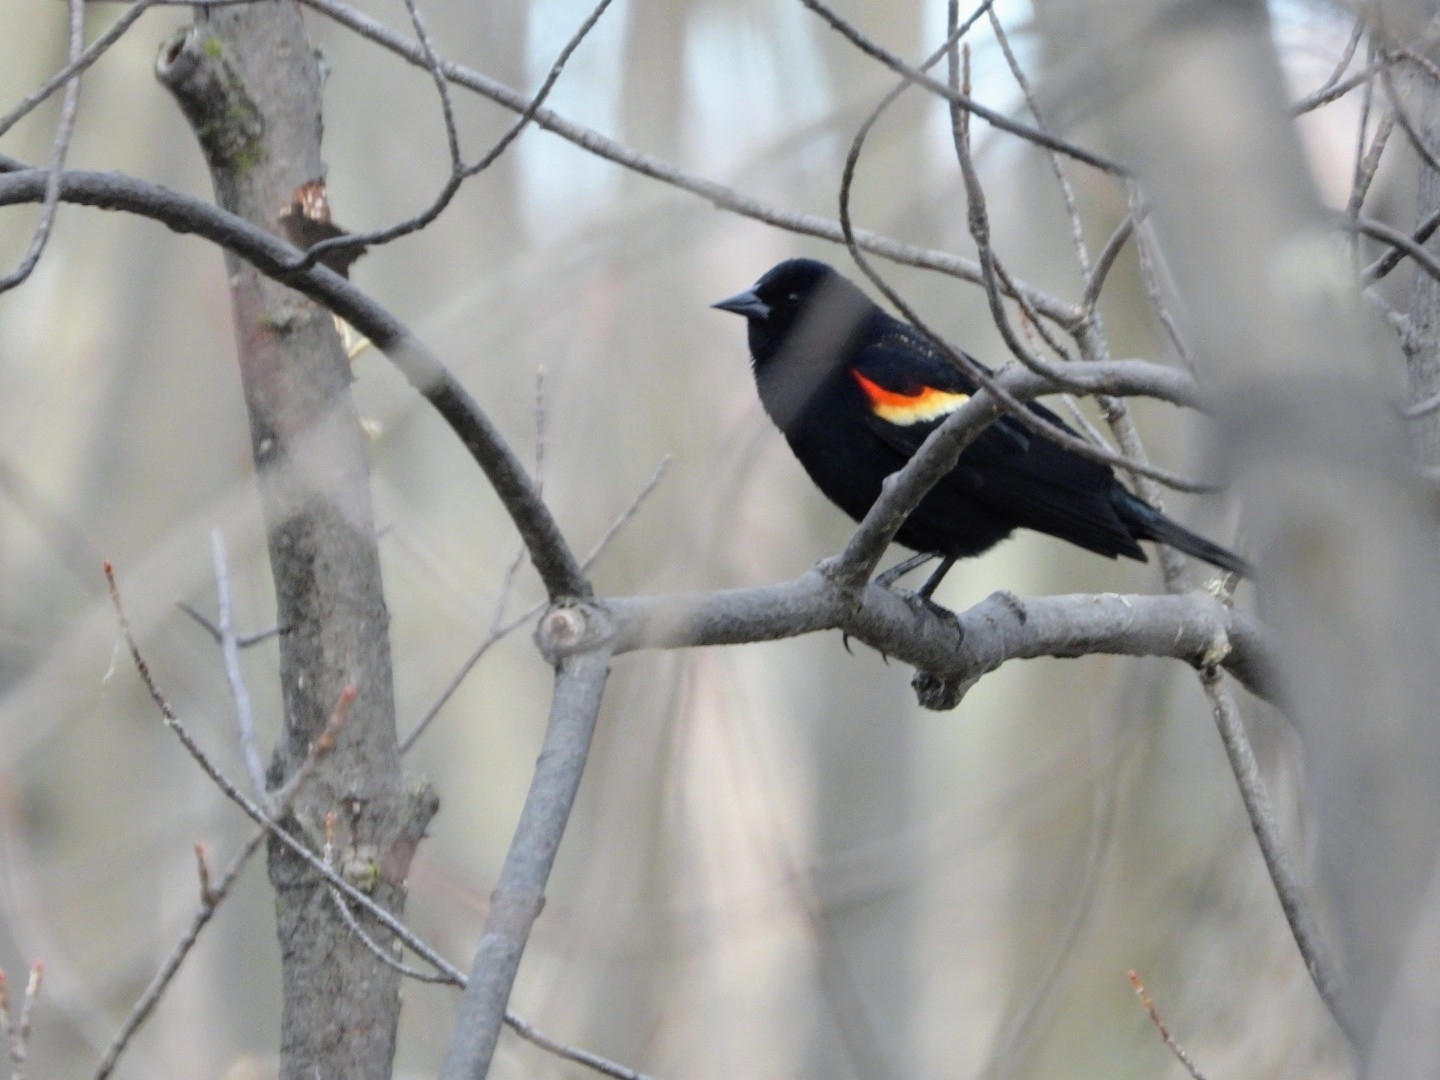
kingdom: Animalia
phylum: Chordata
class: Aves
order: Passeriformes
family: Icteridae
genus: Agelaius
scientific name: Agelaius phoeniceus
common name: Red-winged blackbird
